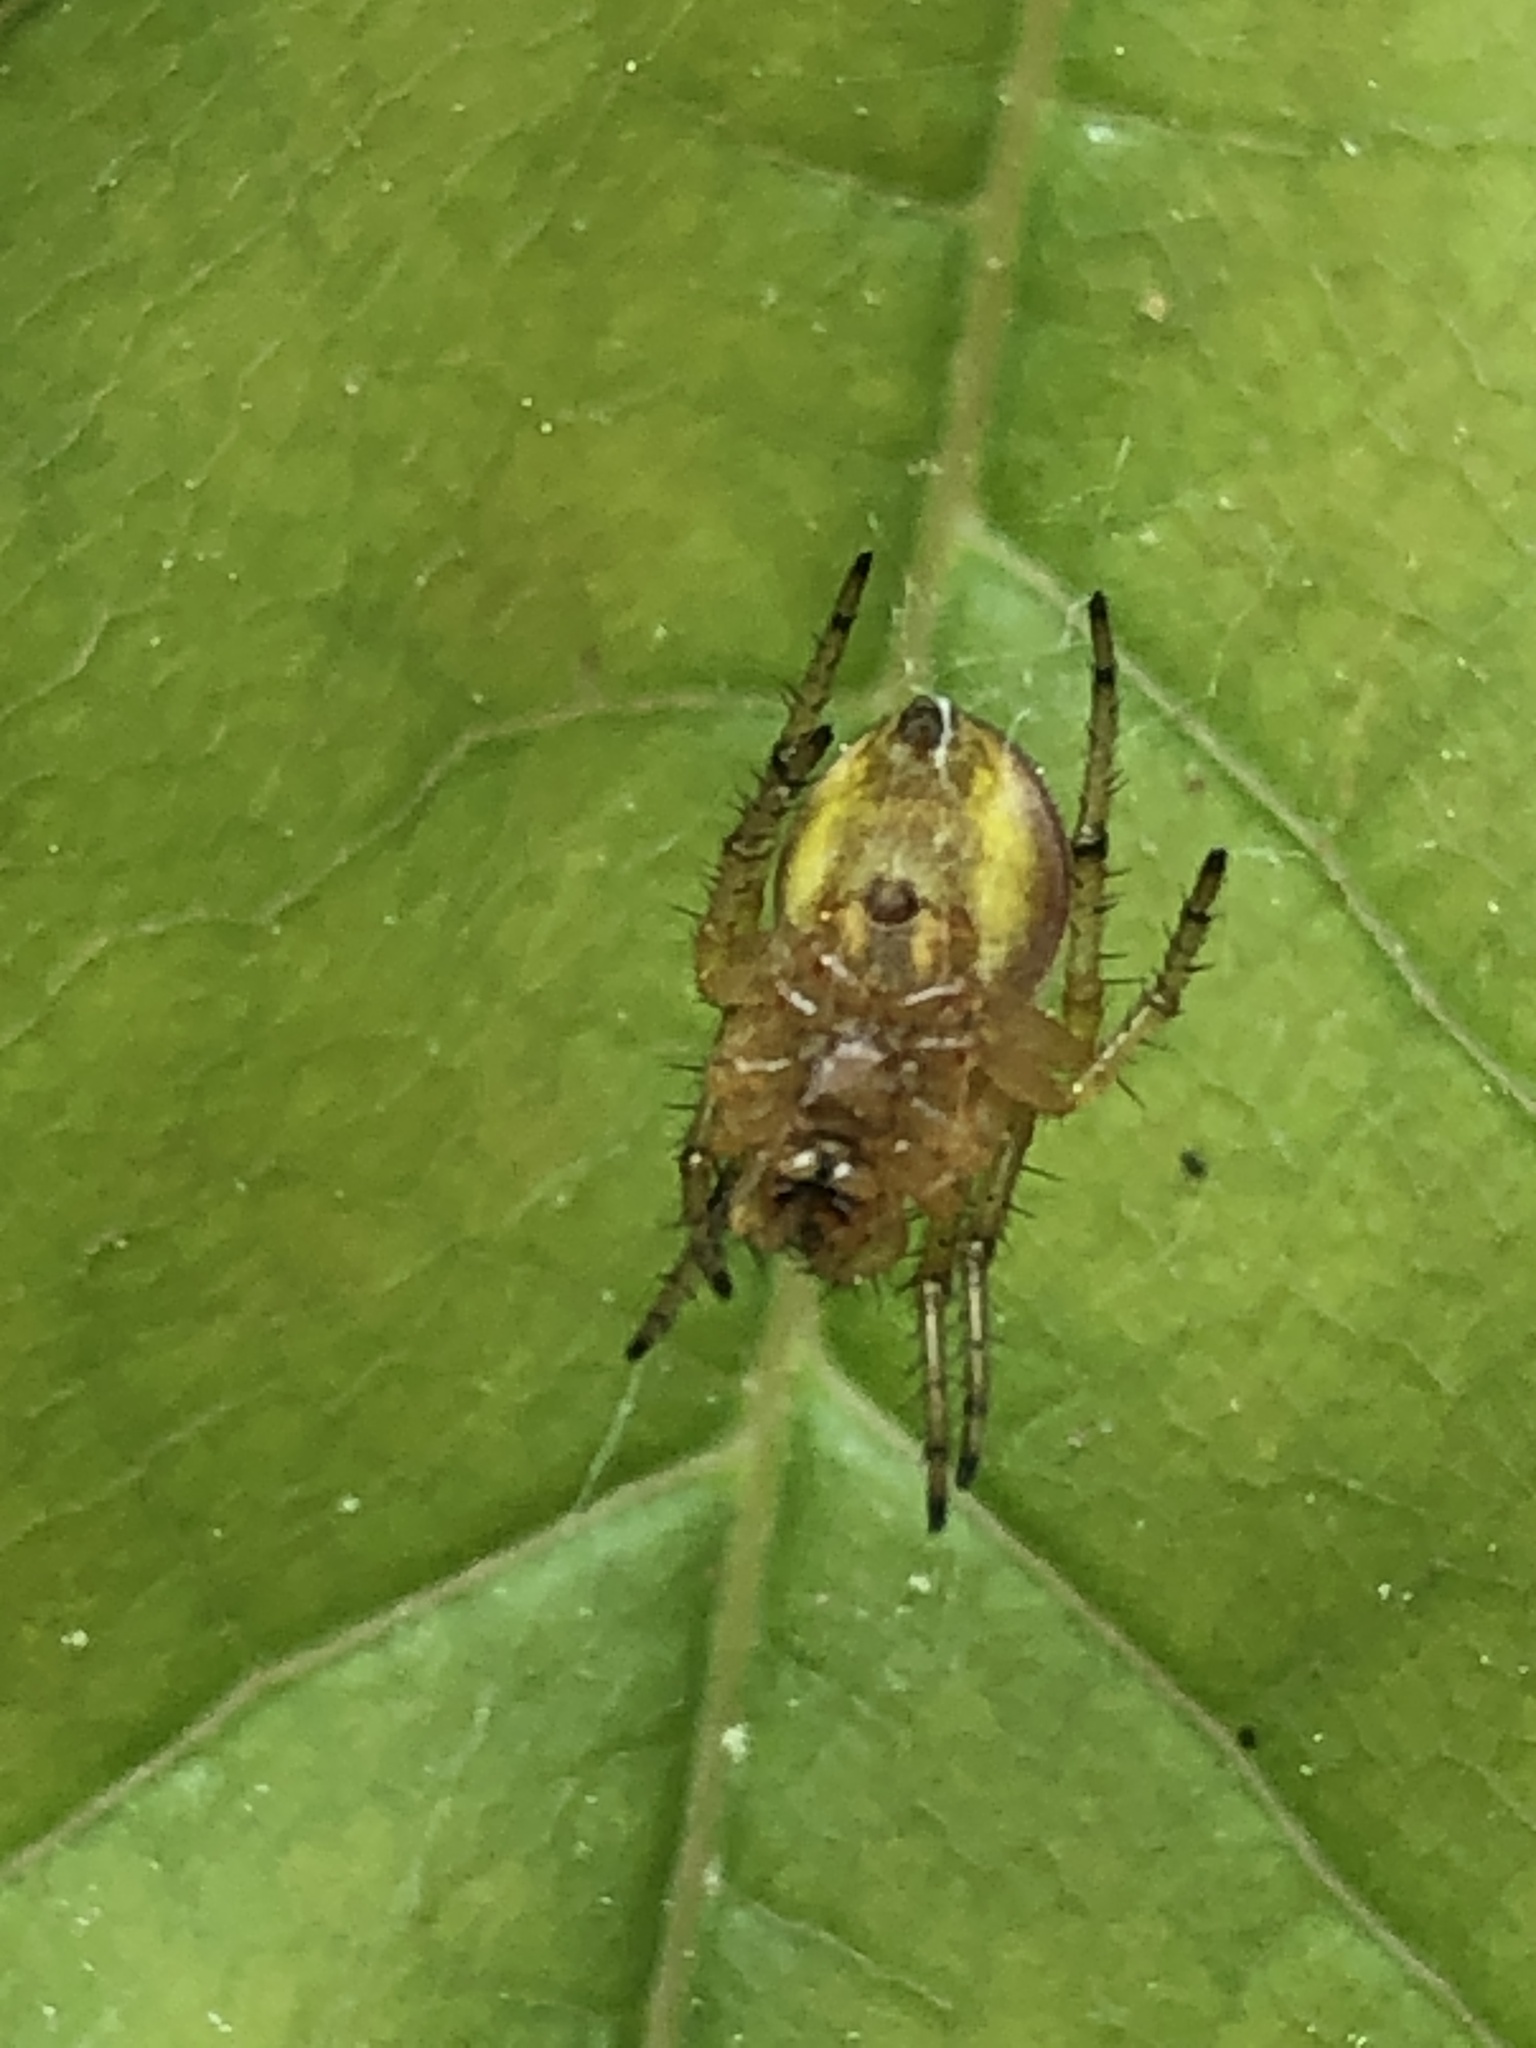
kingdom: Animalia
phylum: Arthropoda
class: Arachnida
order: Araneae
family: Araneidae
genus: Araniella
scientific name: Araniella displicata
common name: Sixspotted orb weaver
